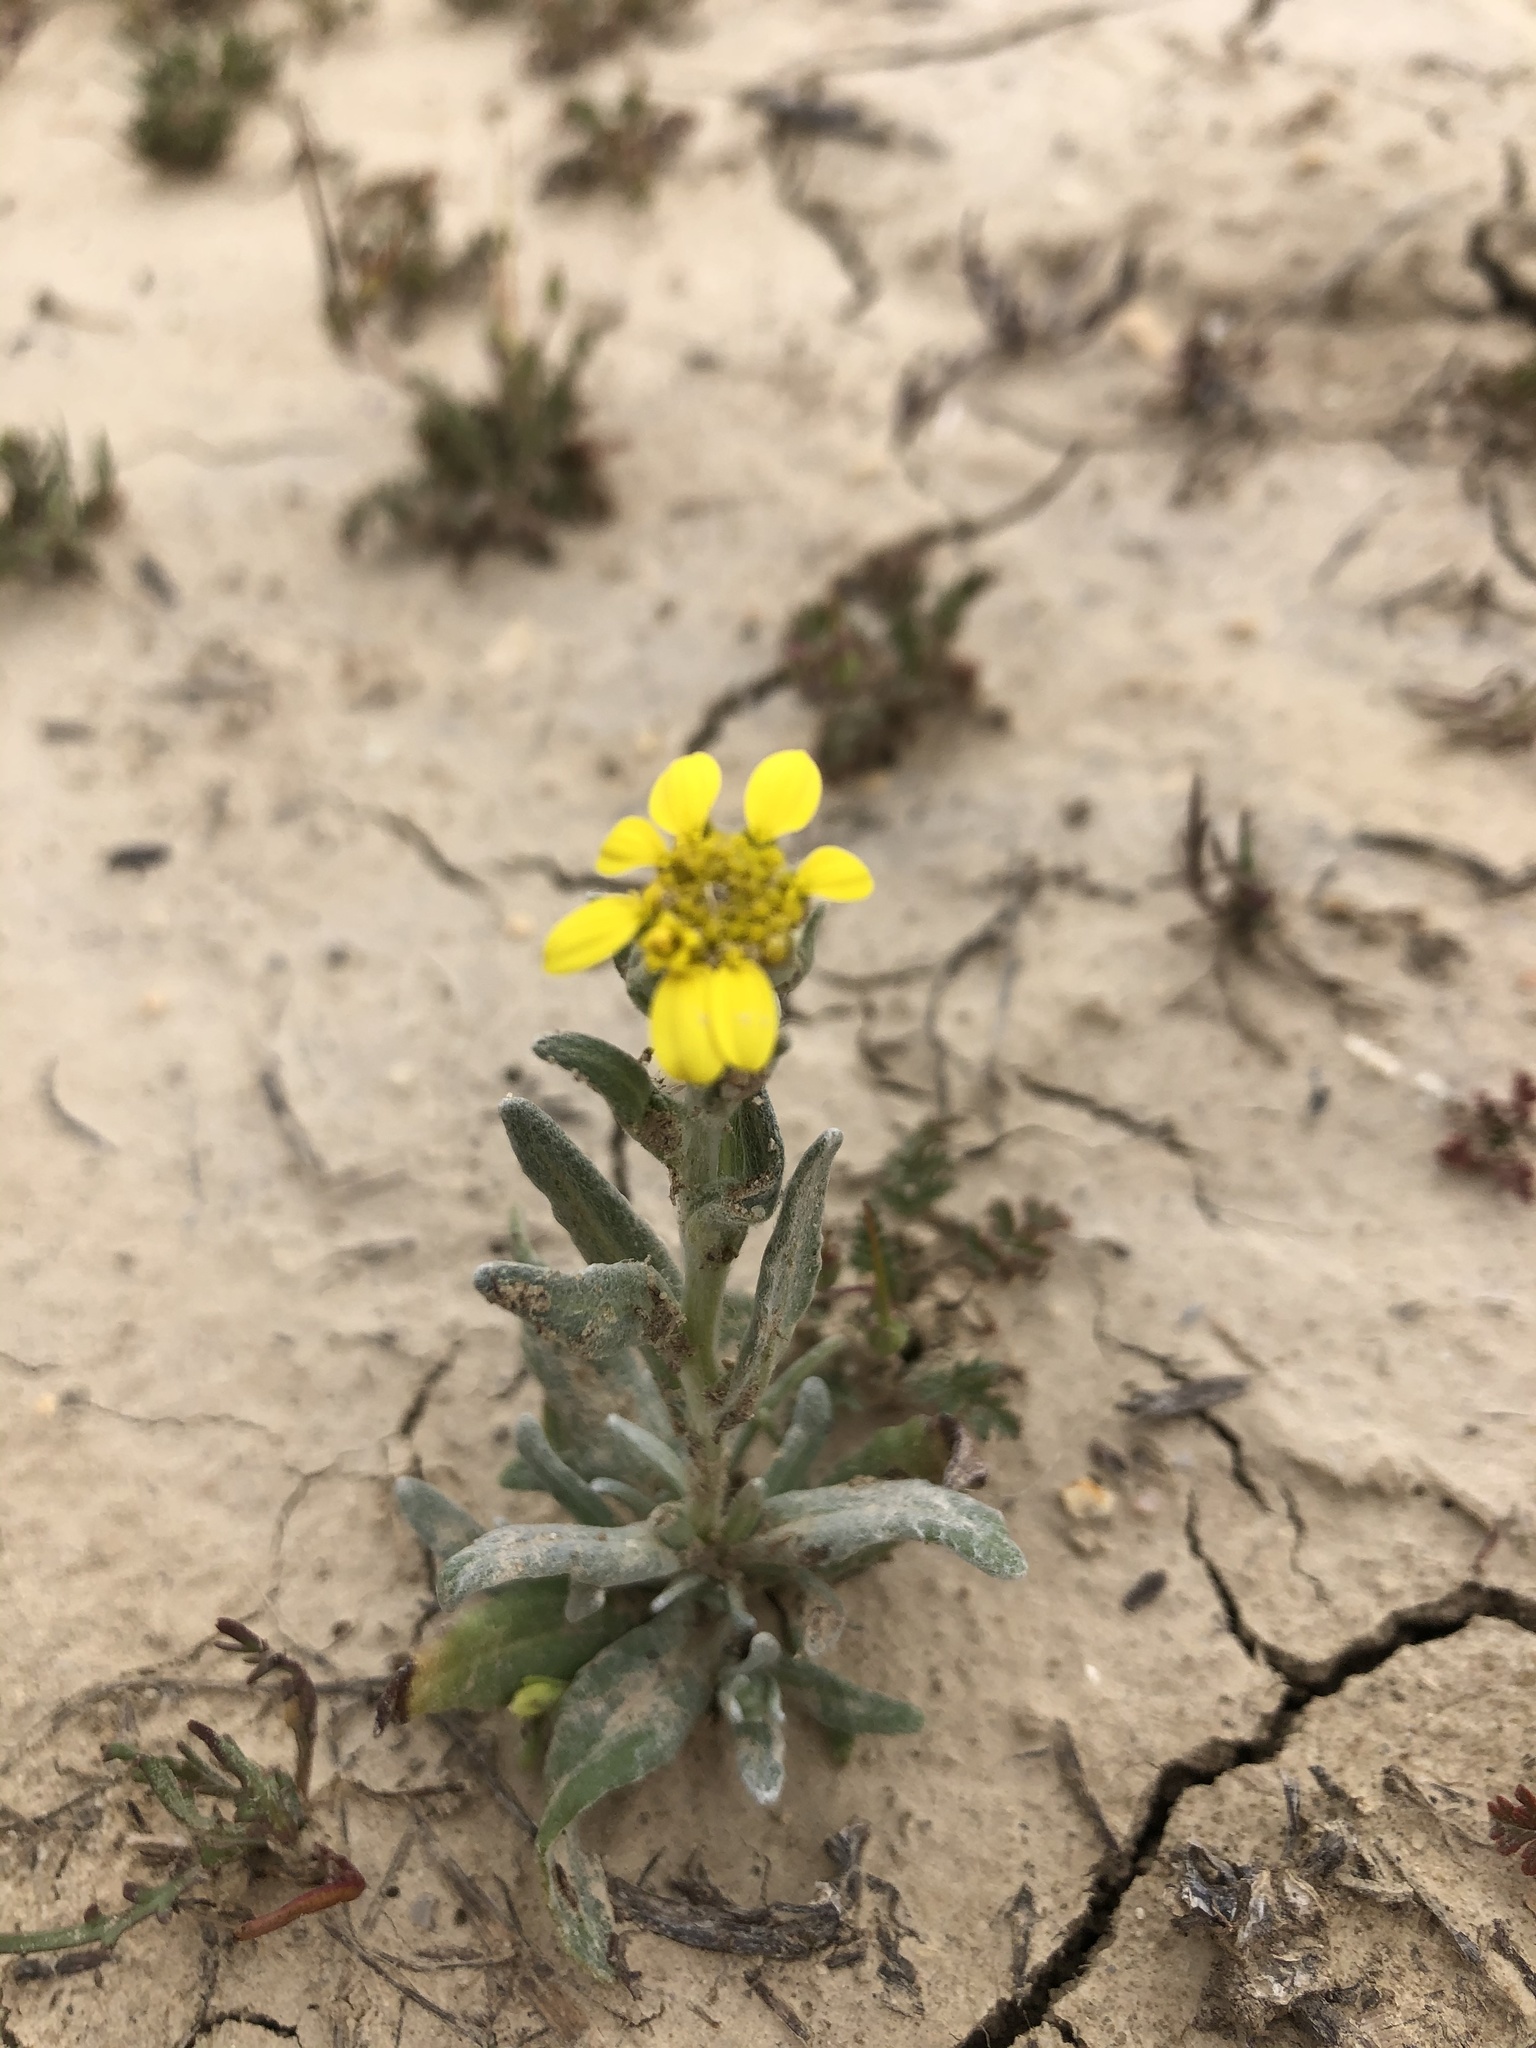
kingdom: Plantae
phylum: Tracheophyta
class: Magnoliopsida
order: Asterales
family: Asteraceae
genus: Monolopia
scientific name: Monolopia stricta
